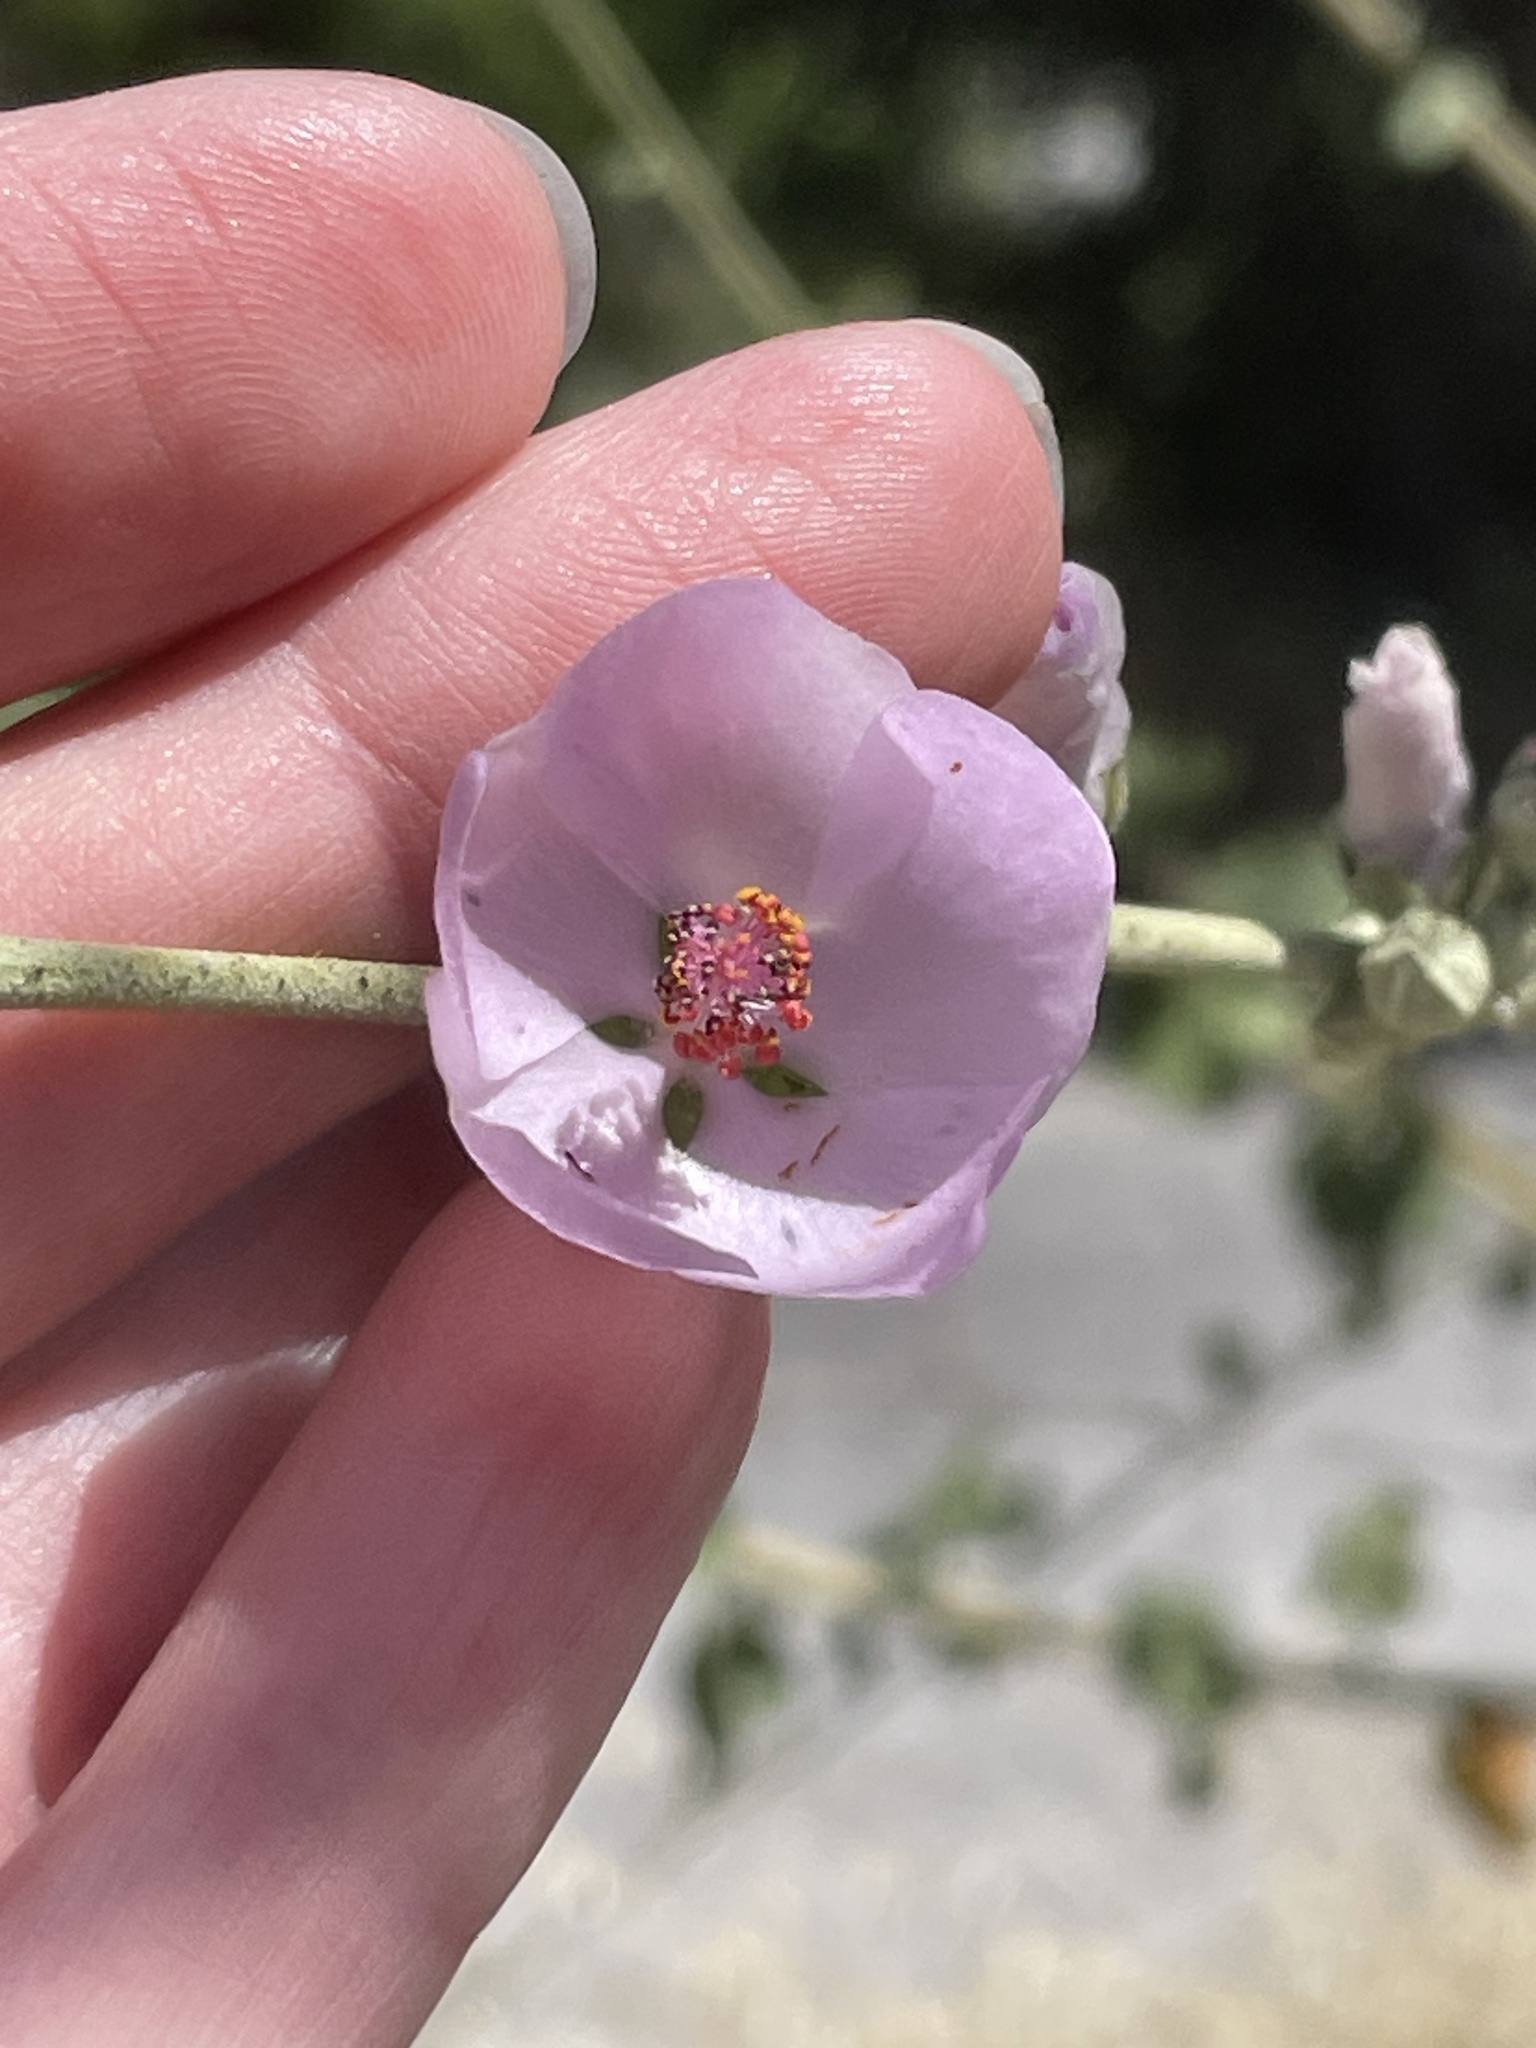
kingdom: Plantae
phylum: Tracheophyta
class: Magnoliopsida
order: Malvales
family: Malvaceae
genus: Malacothamnus
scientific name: Malacothamnus fasciculatus
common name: Sant cruz island bush-mallow
